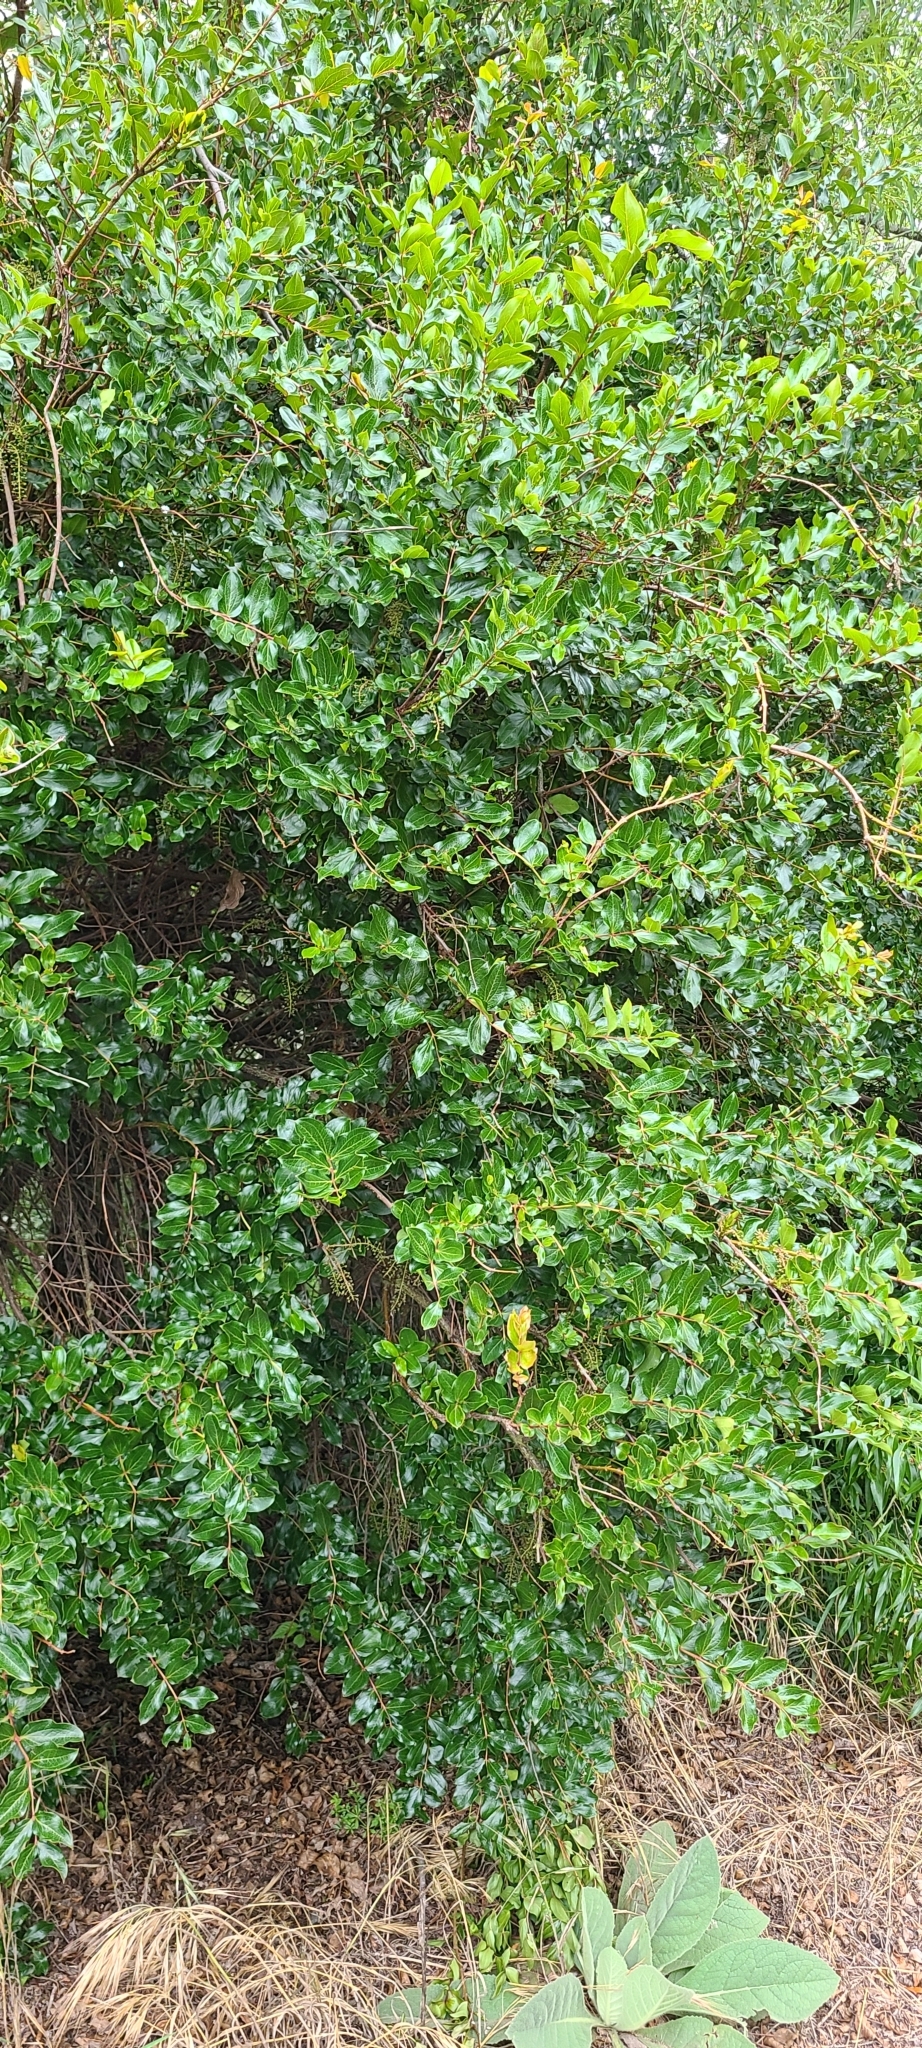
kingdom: Plantae
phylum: Tracheophyta
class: Magnoliopsida
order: Cucurbitales
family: Coriariaceae
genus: Coriaria
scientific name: Coriaria arborea
